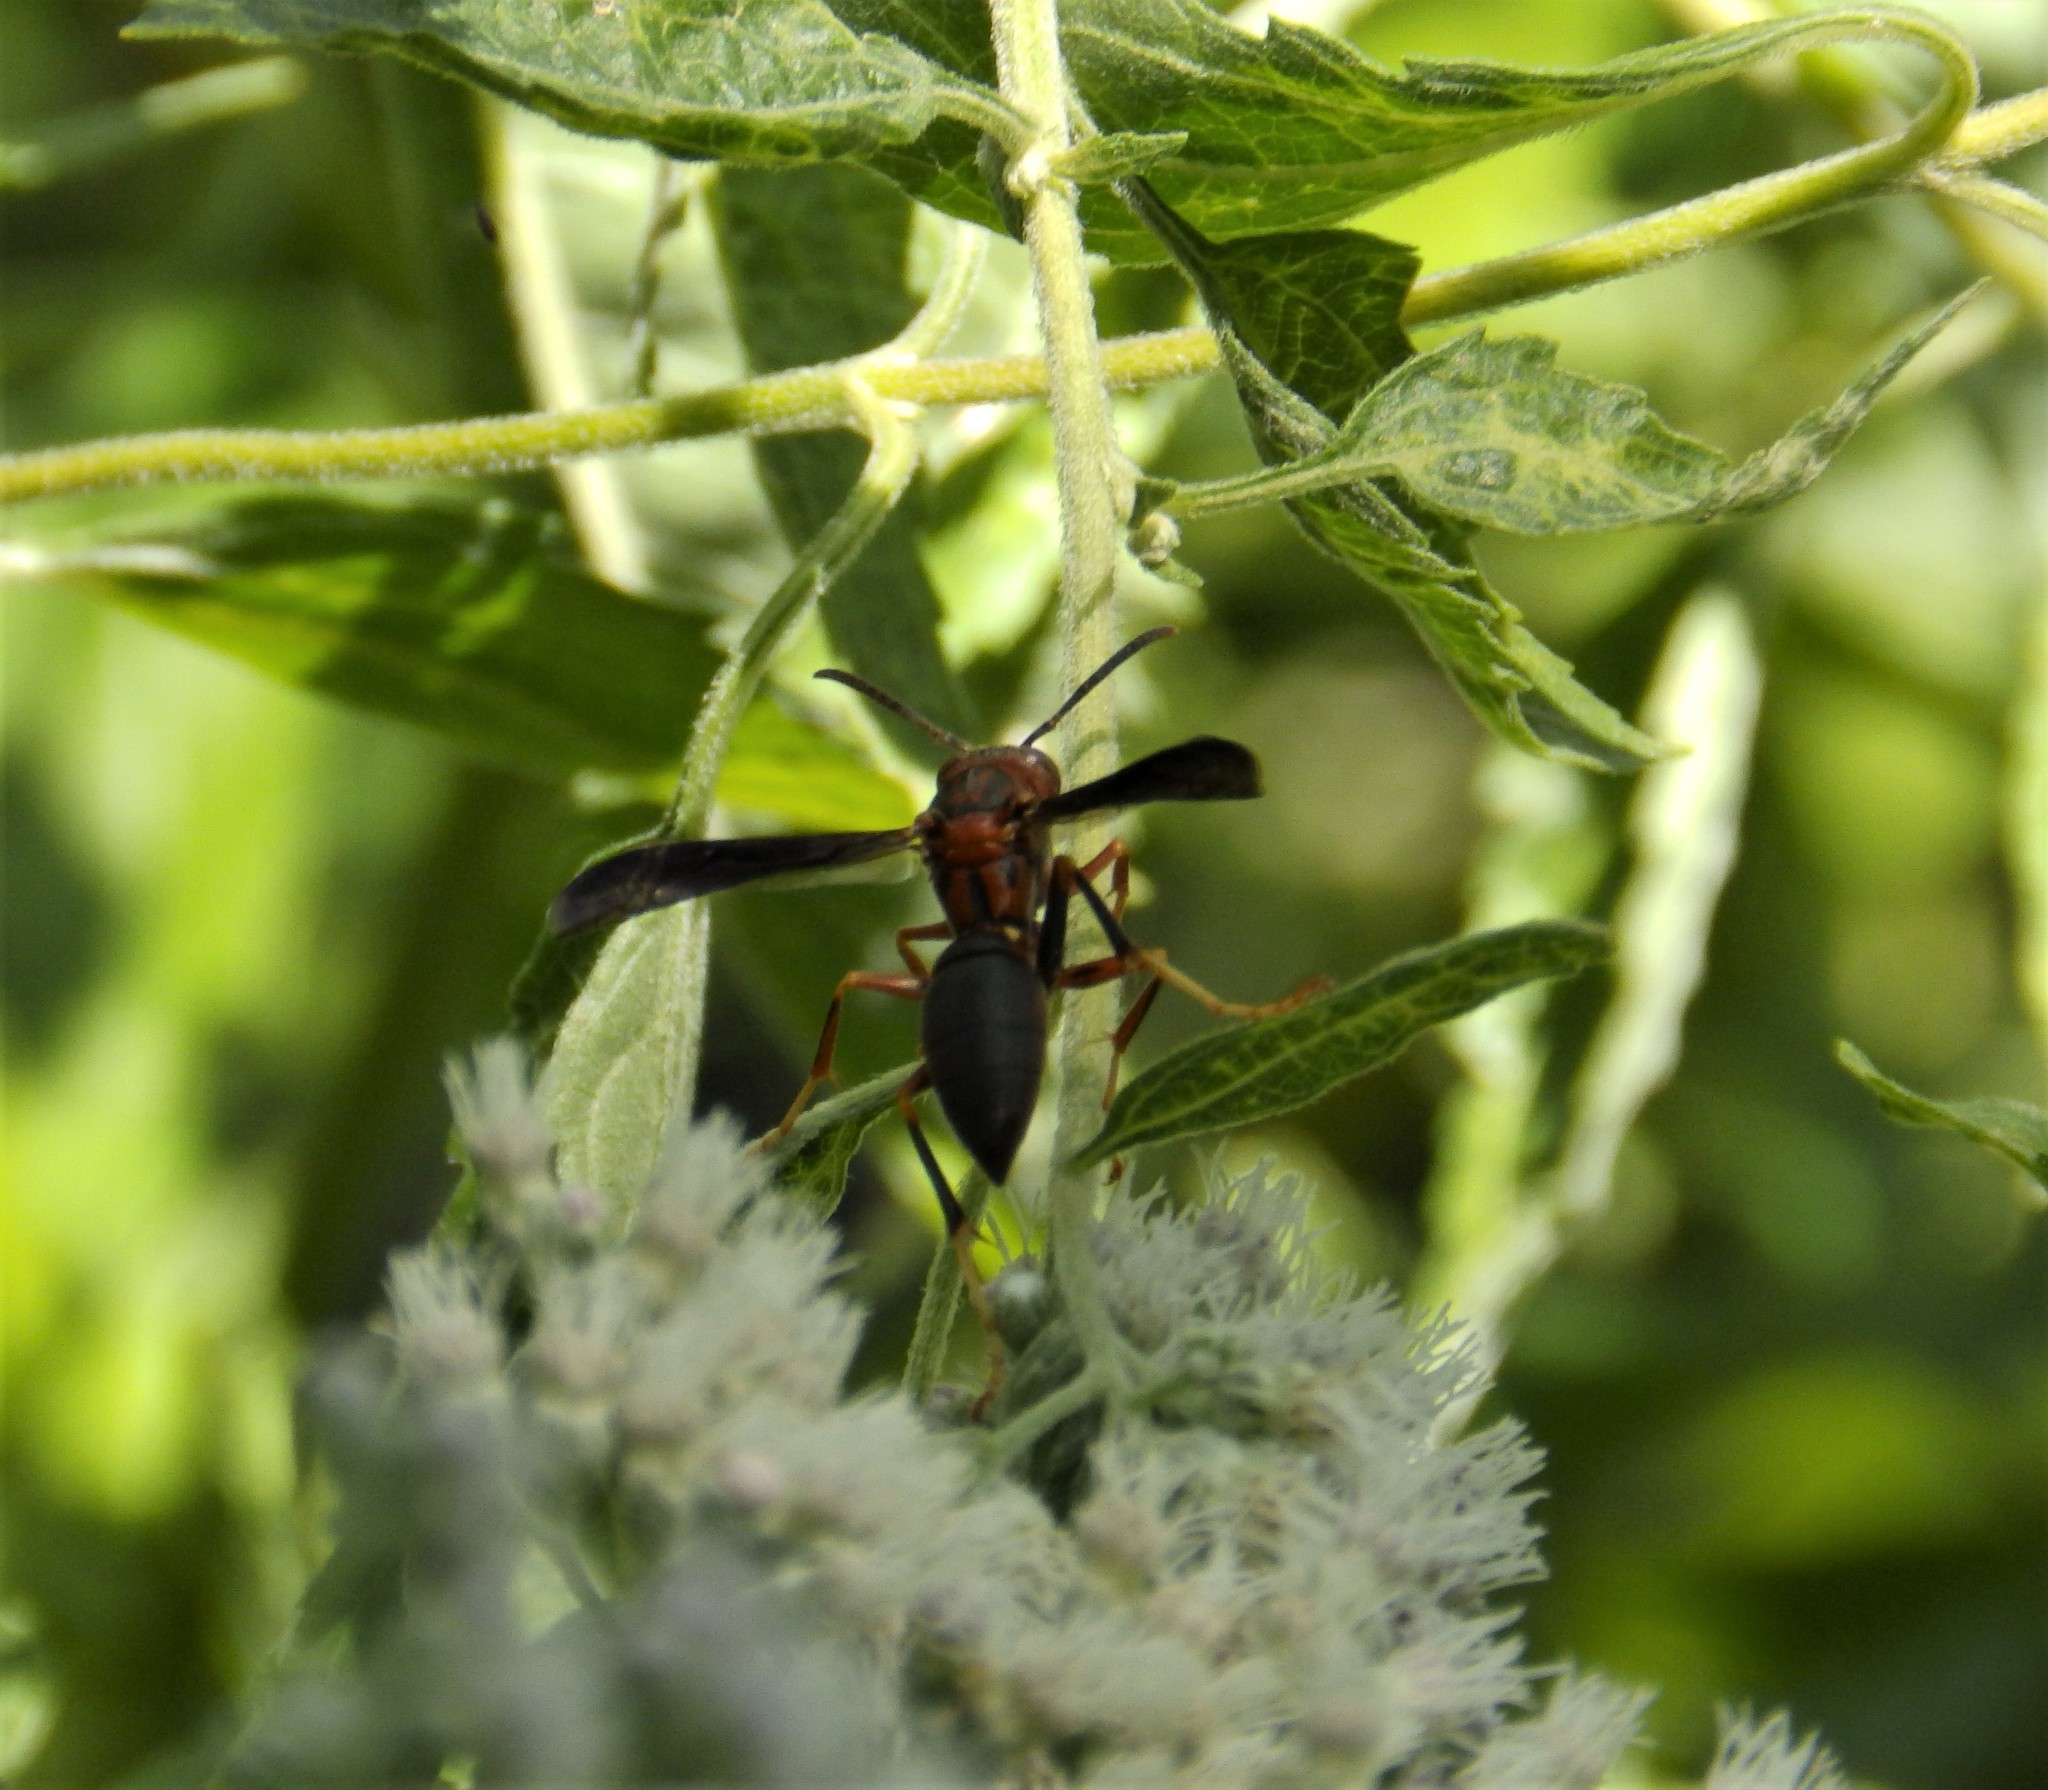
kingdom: Animalia
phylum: Arthropoda
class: Insecta
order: Hymenoptera
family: Eumenidae
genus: Polistes
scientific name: Polistes metricus
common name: Metric paper wasp
